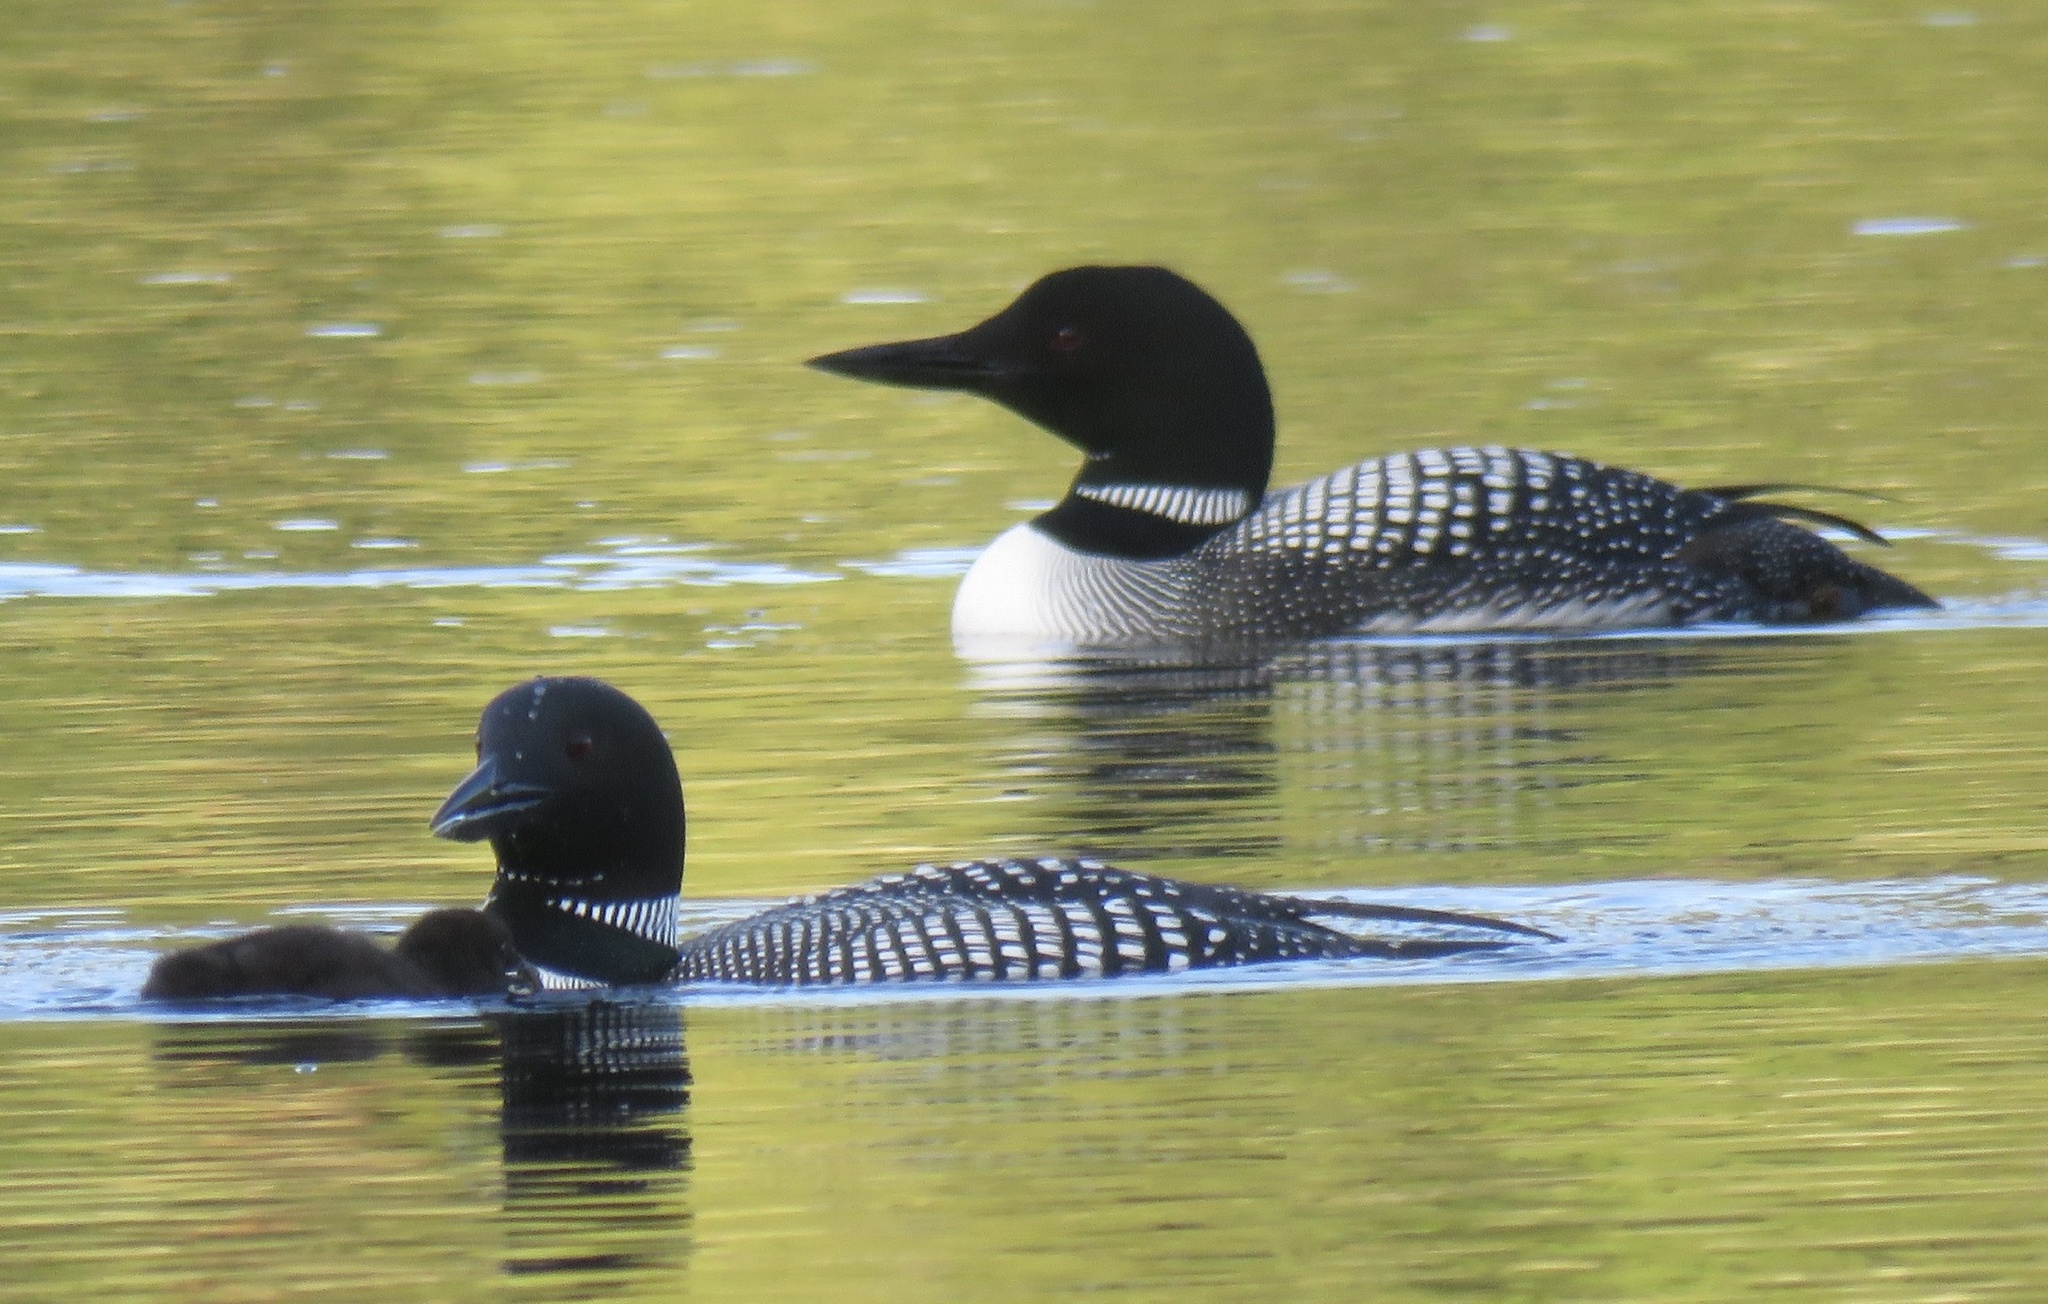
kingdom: Animalia
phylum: Chordata
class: Aves
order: Gaviiformes
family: Gaviidae
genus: Gavia
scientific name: Gavia immer
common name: Common loon
